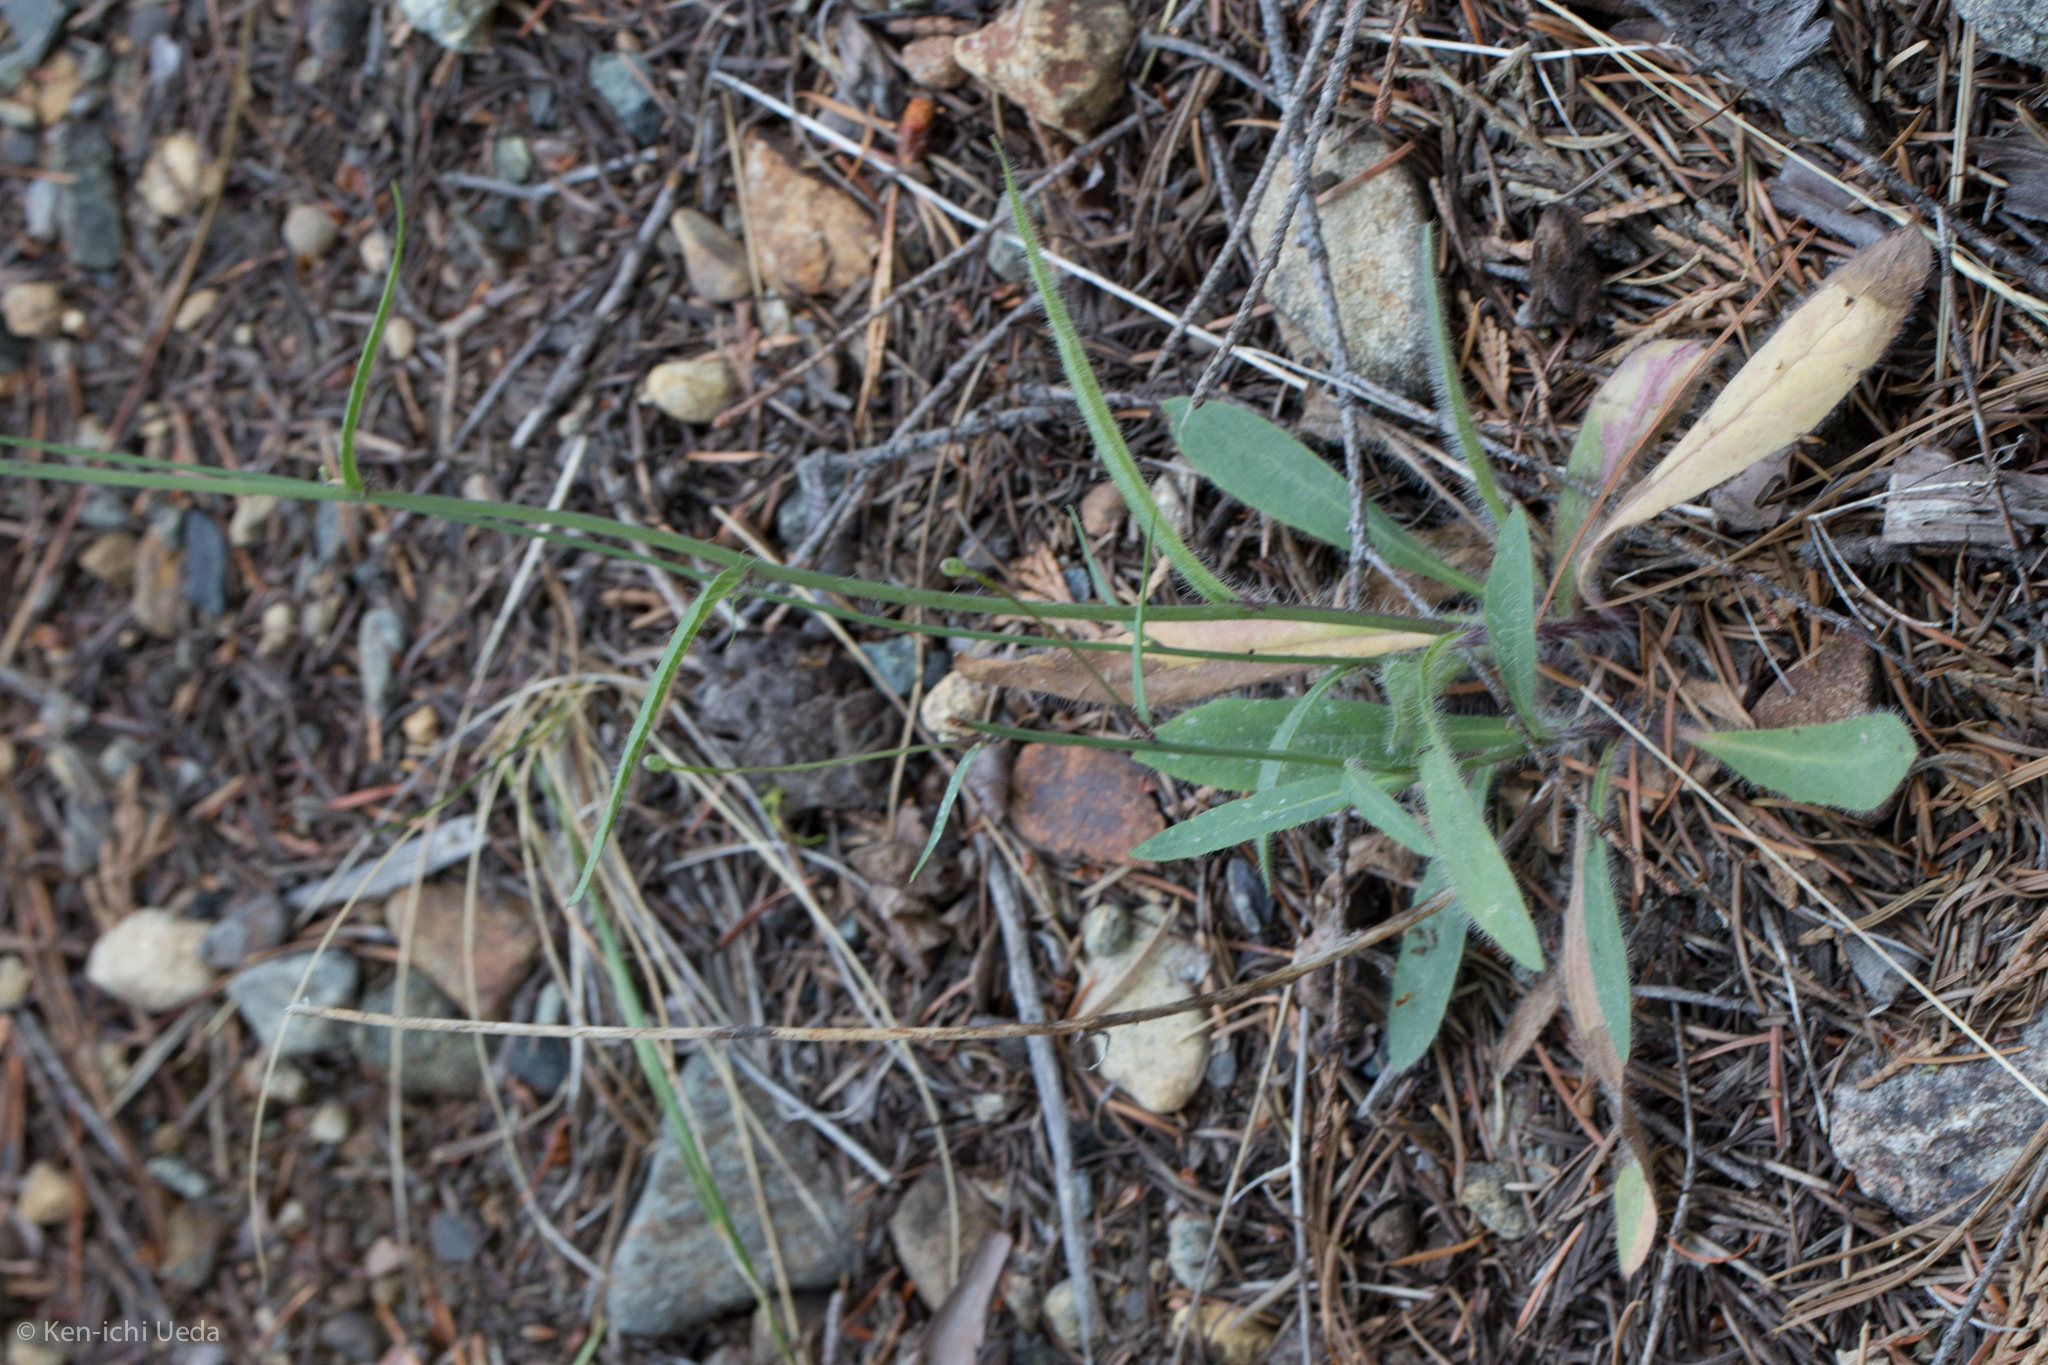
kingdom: Plantae
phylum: Tracheophyta
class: Magnoliopsida
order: Asterales
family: Asteraceae
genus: Hieracium
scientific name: Hieracium albiflorum
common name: White hawkweed
